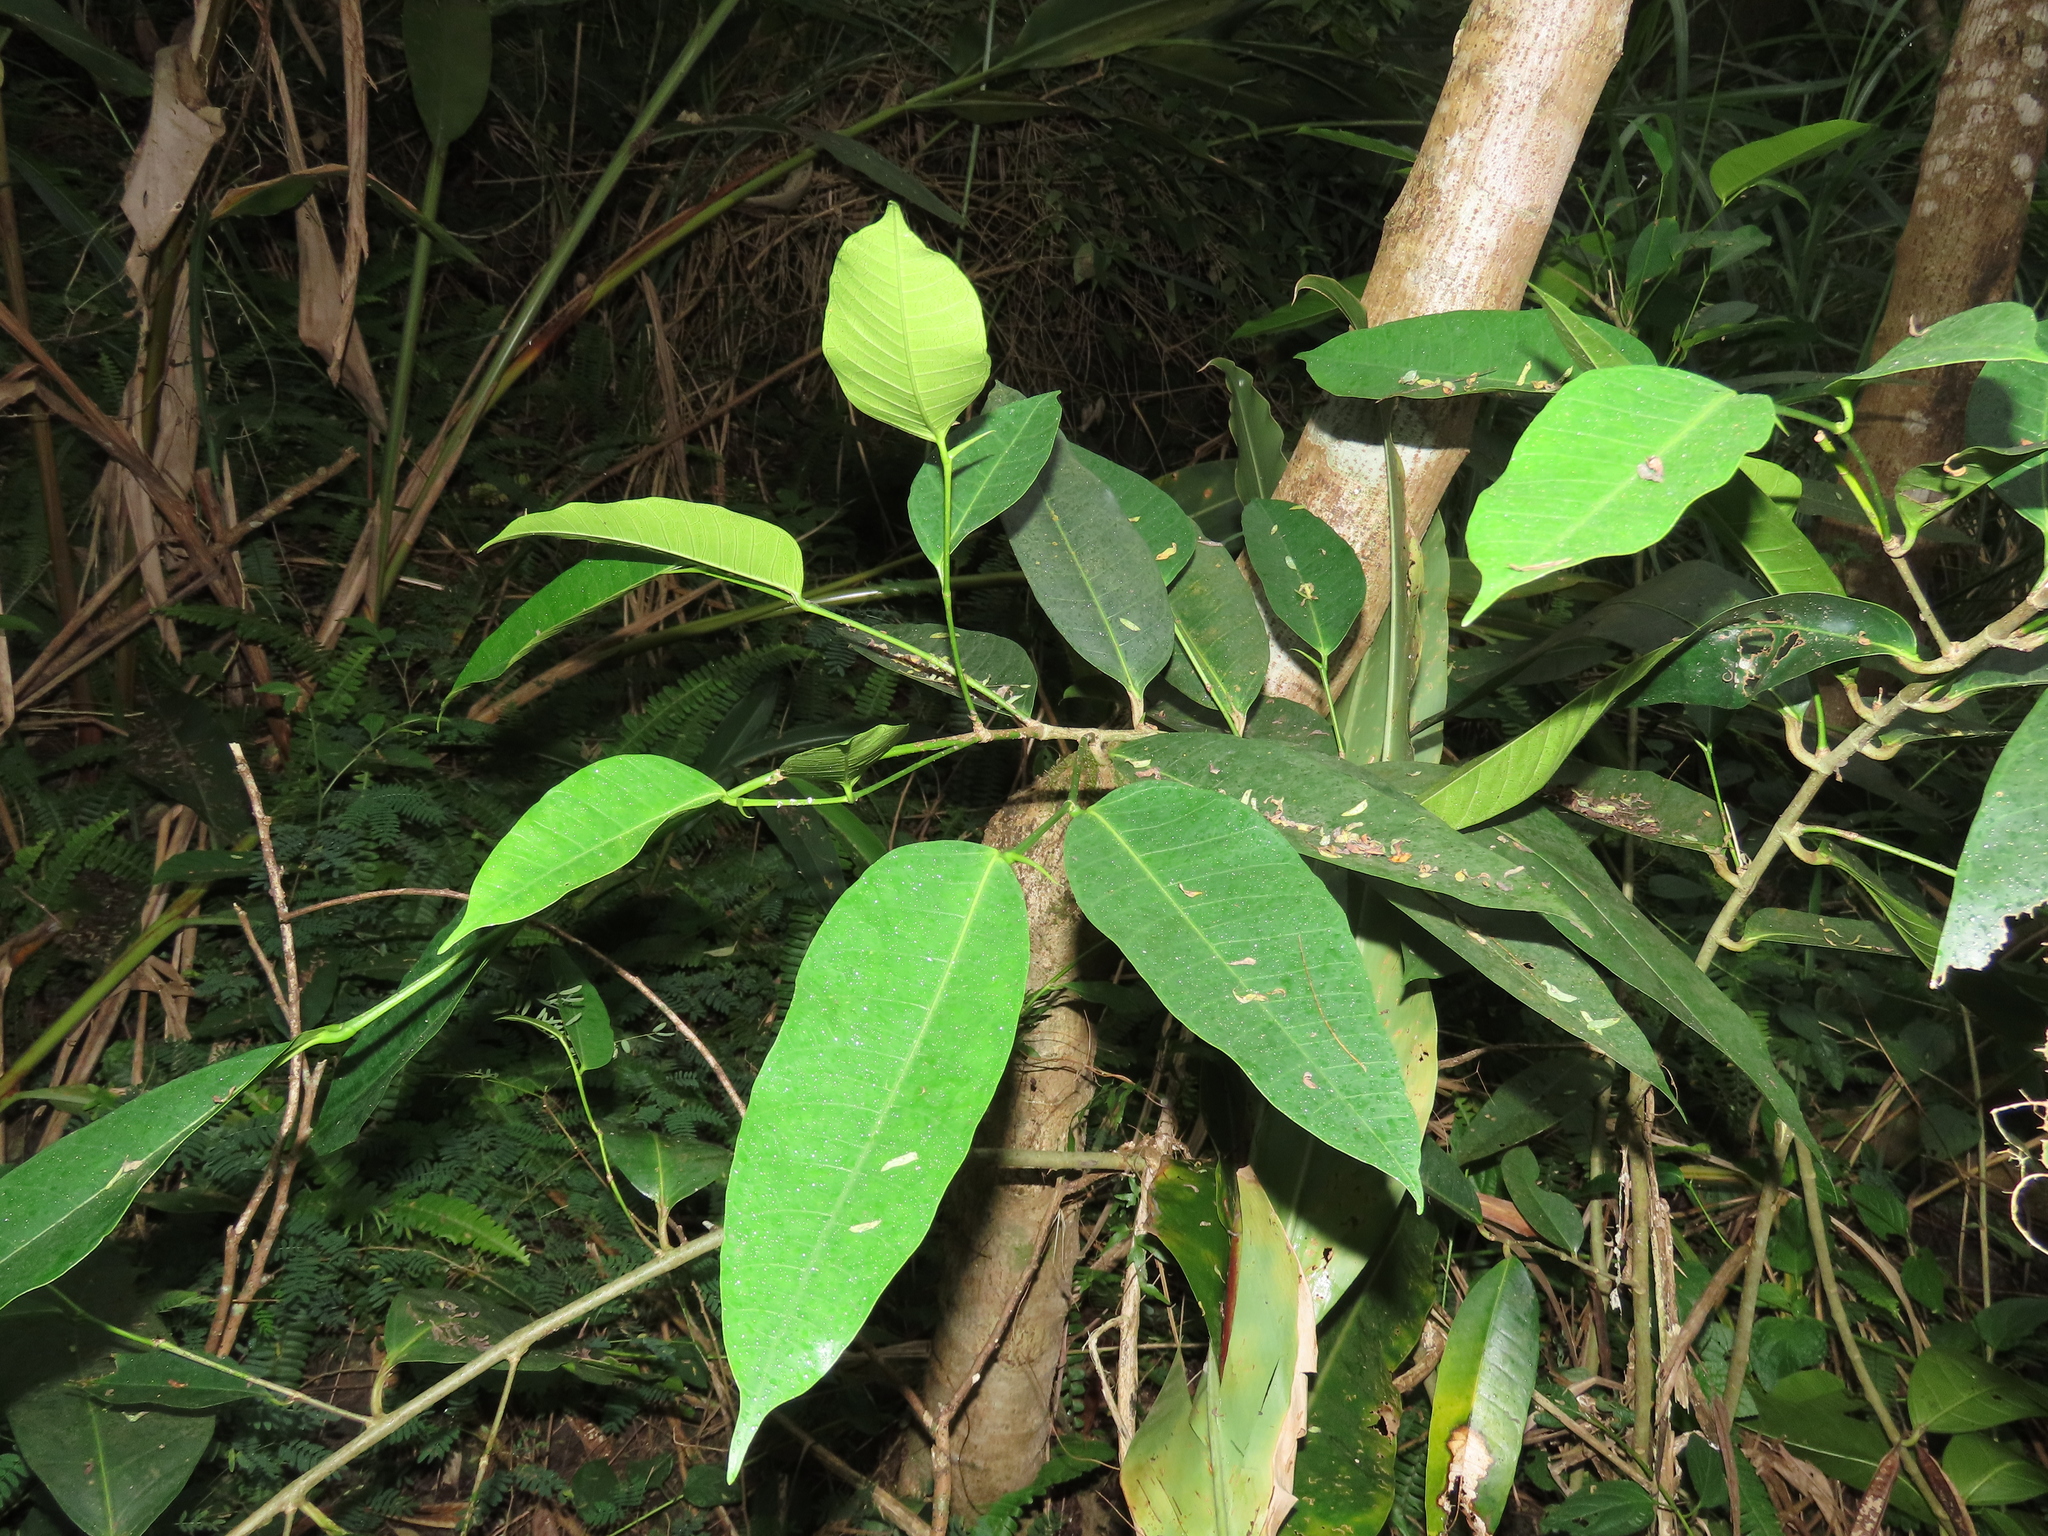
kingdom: Plantae
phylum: Tracheophyta
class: Magnoliopsida
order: Rosales
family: Moraceae
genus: Ficus
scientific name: Ficus virgata
